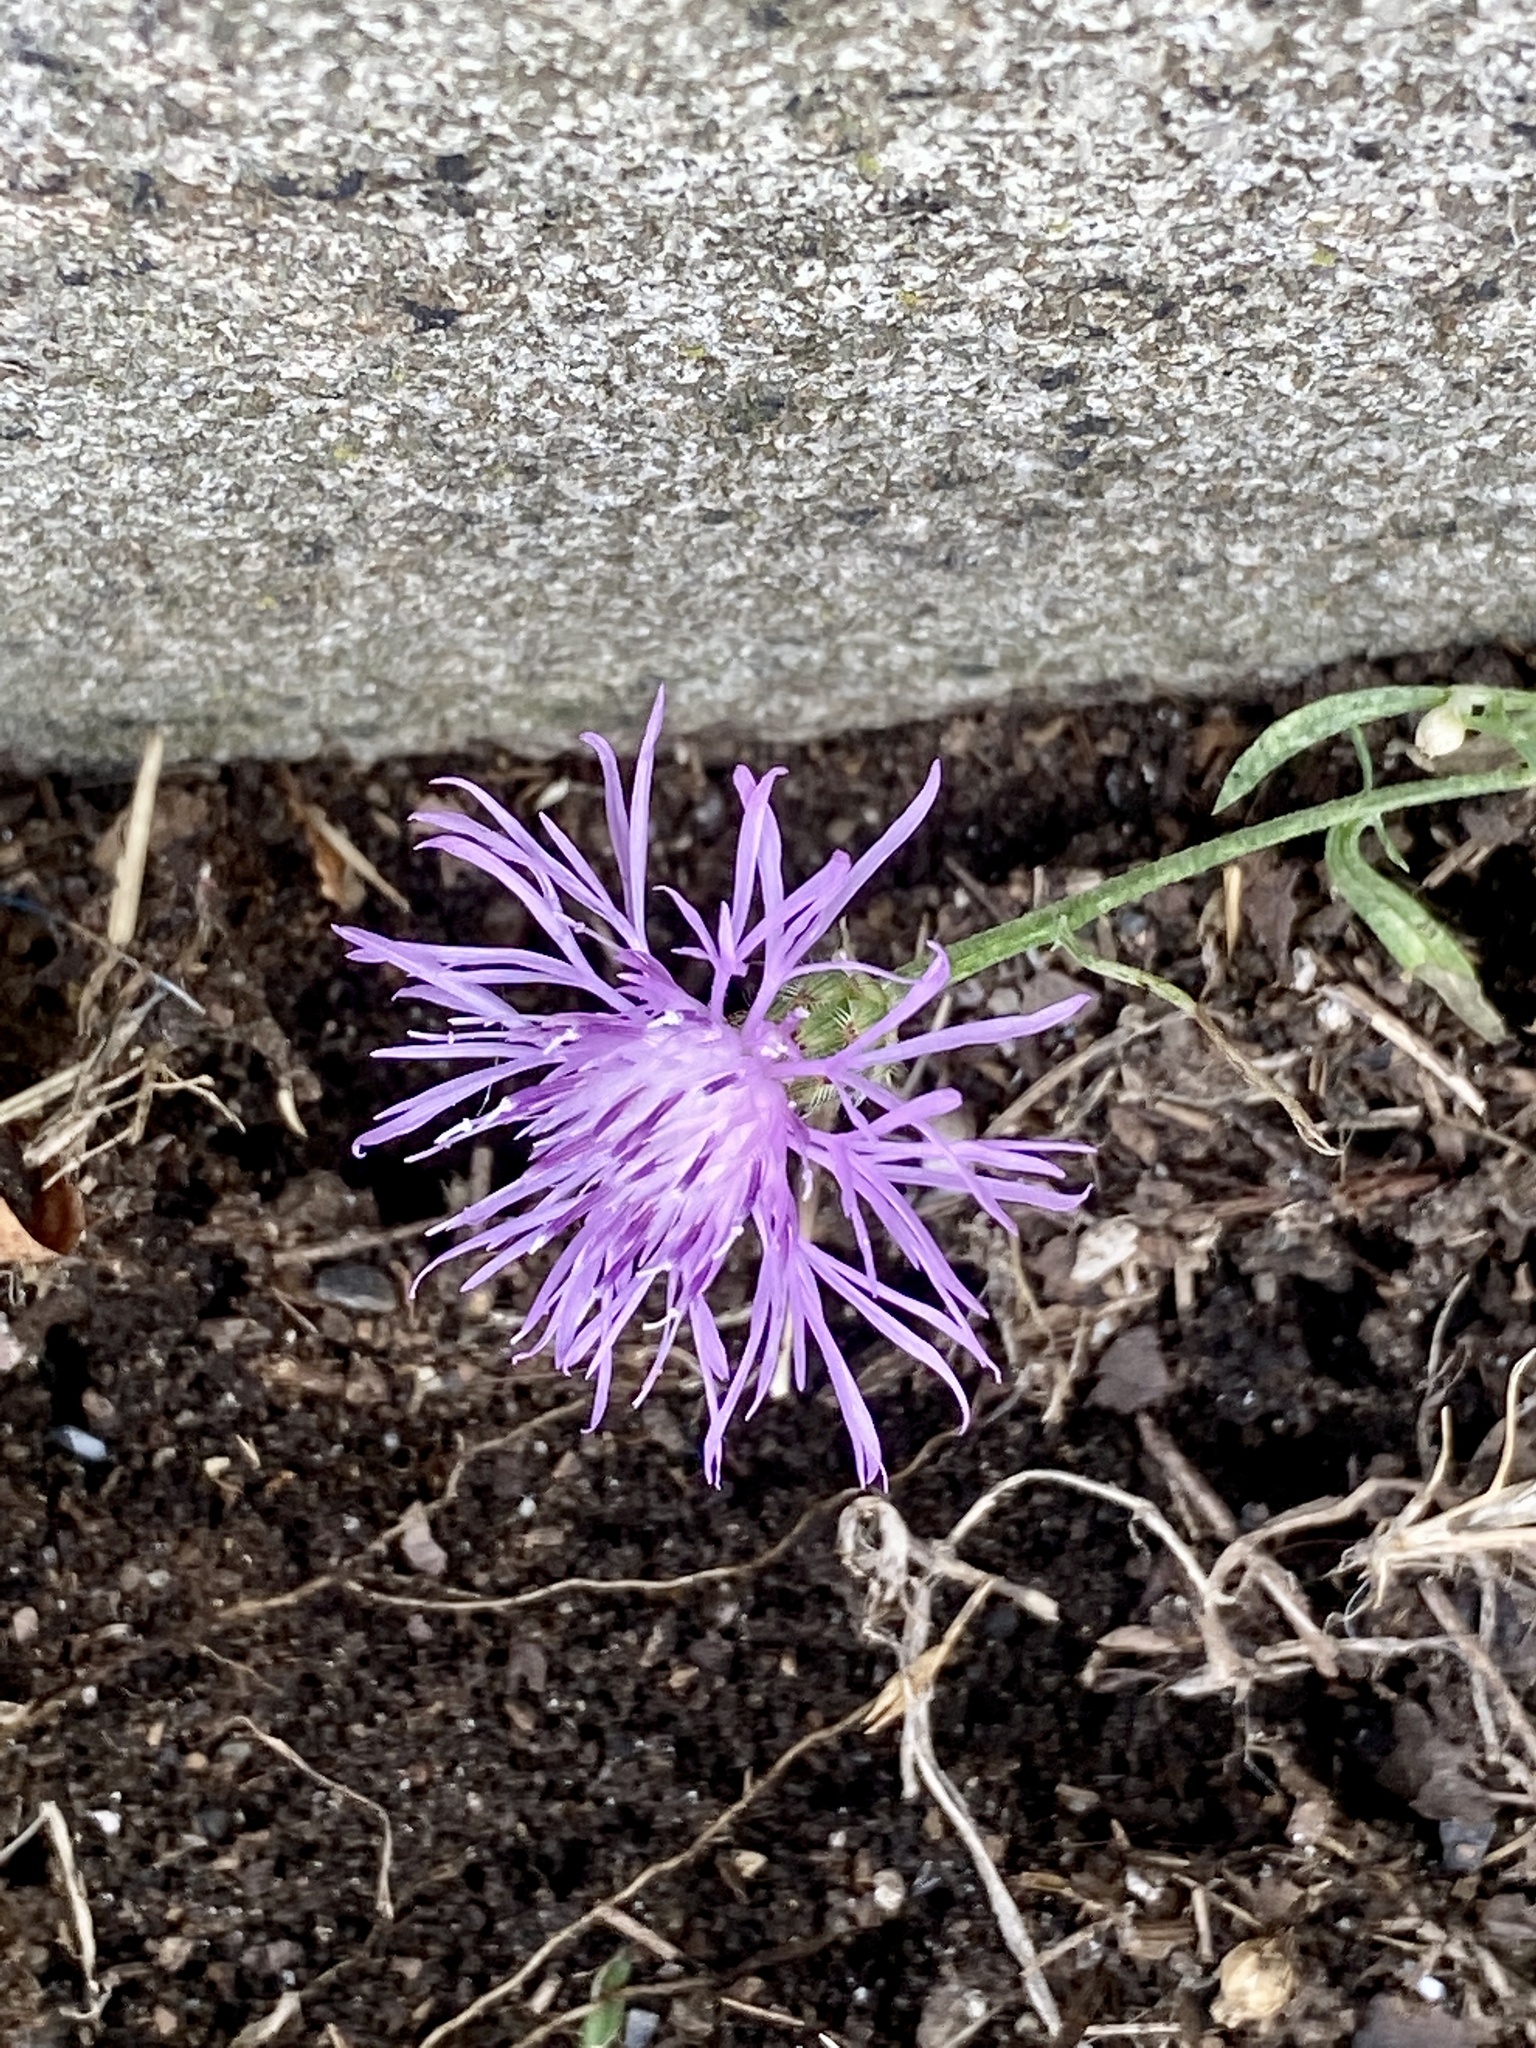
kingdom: Plantae
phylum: Tracheophyta
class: Magnoliopsida
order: Asterales
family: Asteraceae
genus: Centaurea
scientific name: Centaurea stoebe
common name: Spotted knapweed
